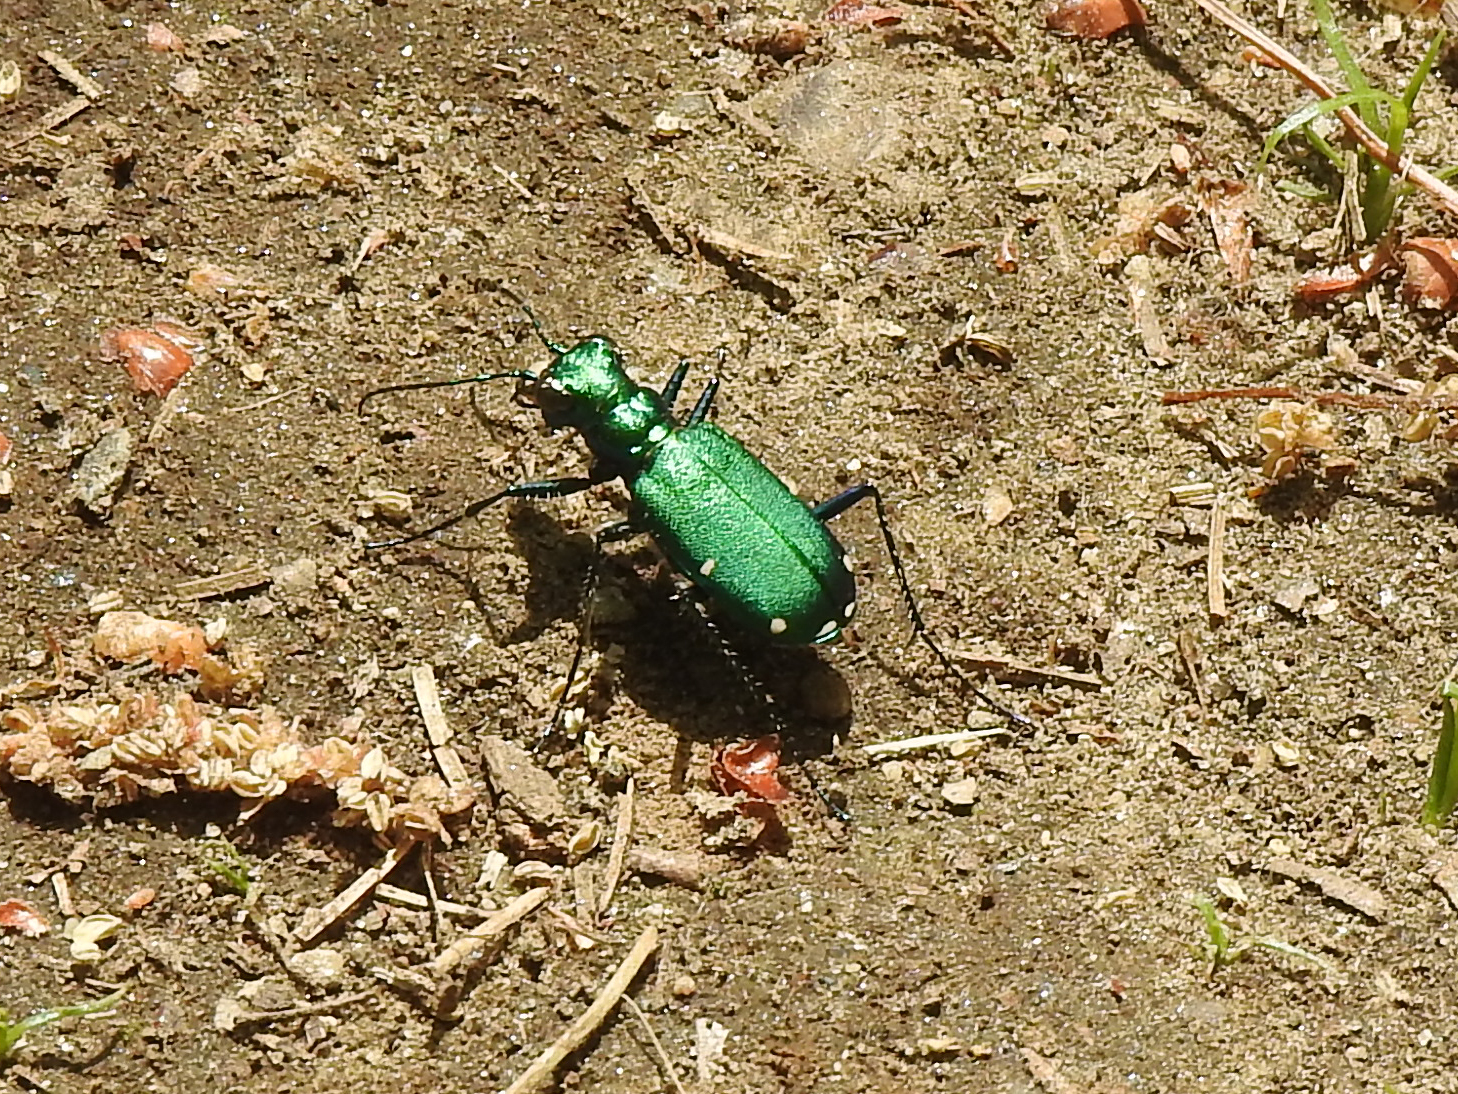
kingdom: Animalia
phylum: Arthropoda
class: Insecta
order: Coleoptera
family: Carabidae
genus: Cicindela
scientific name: Cicindela sexguttata
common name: Six-spotted tiger beetle
